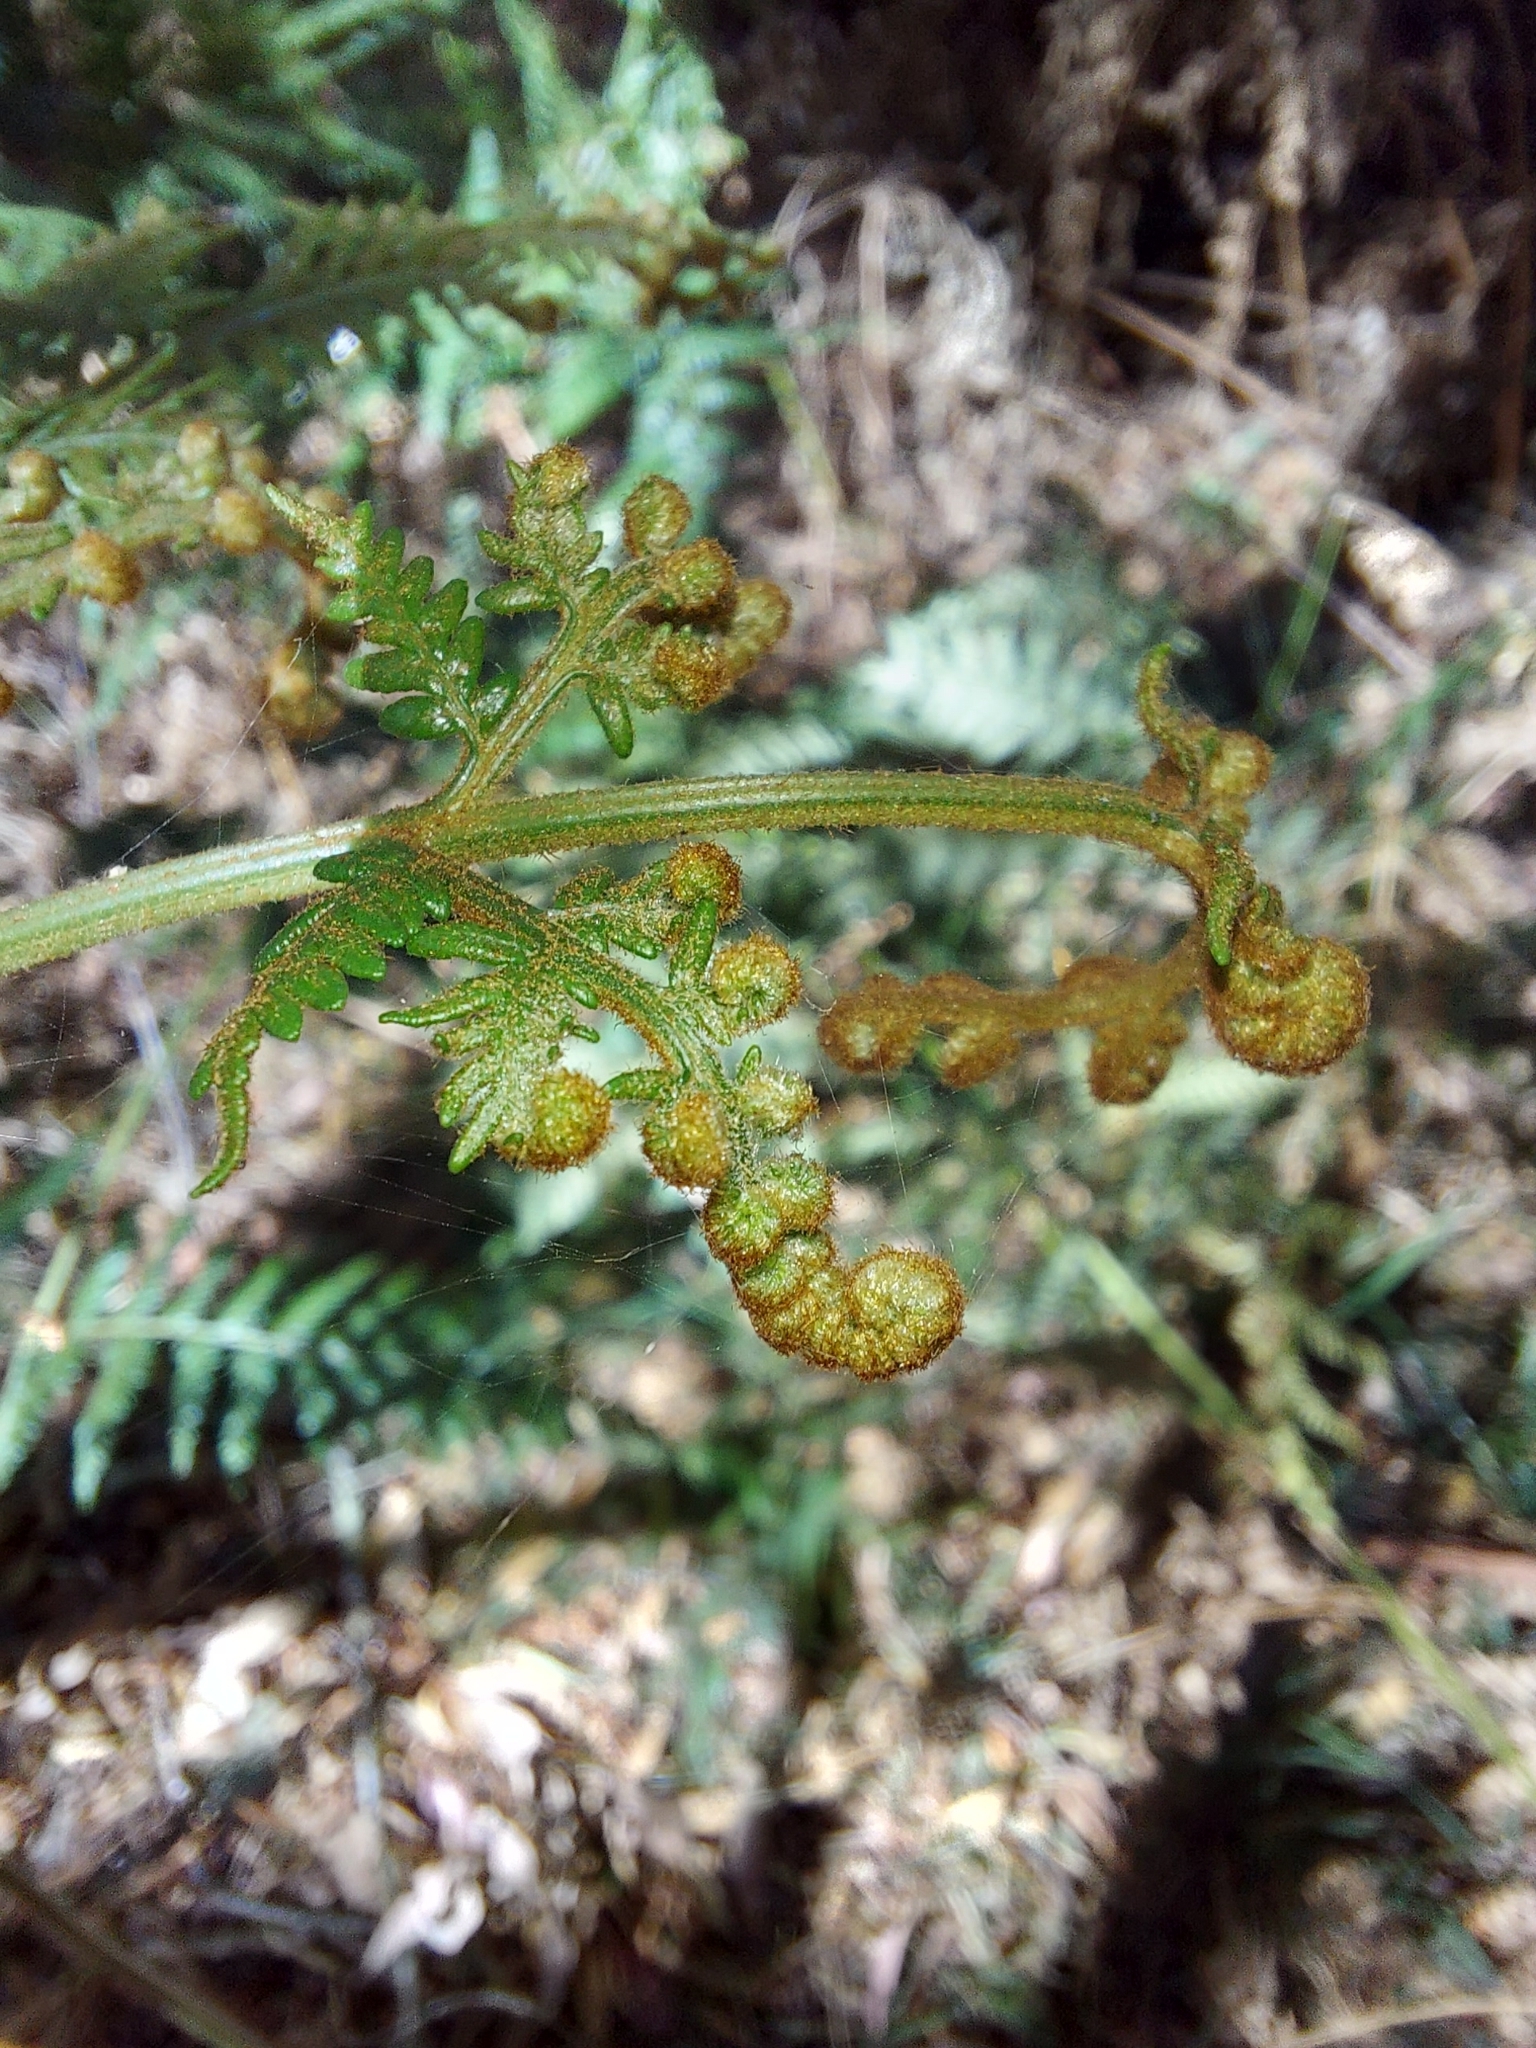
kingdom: Plantae
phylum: Tracheophyta
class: Polypodiopsida
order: Polypodiales
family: Dennstaedtiaceae
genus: Pteridium
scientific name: Pteridium esculentum
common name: Bracken fern
